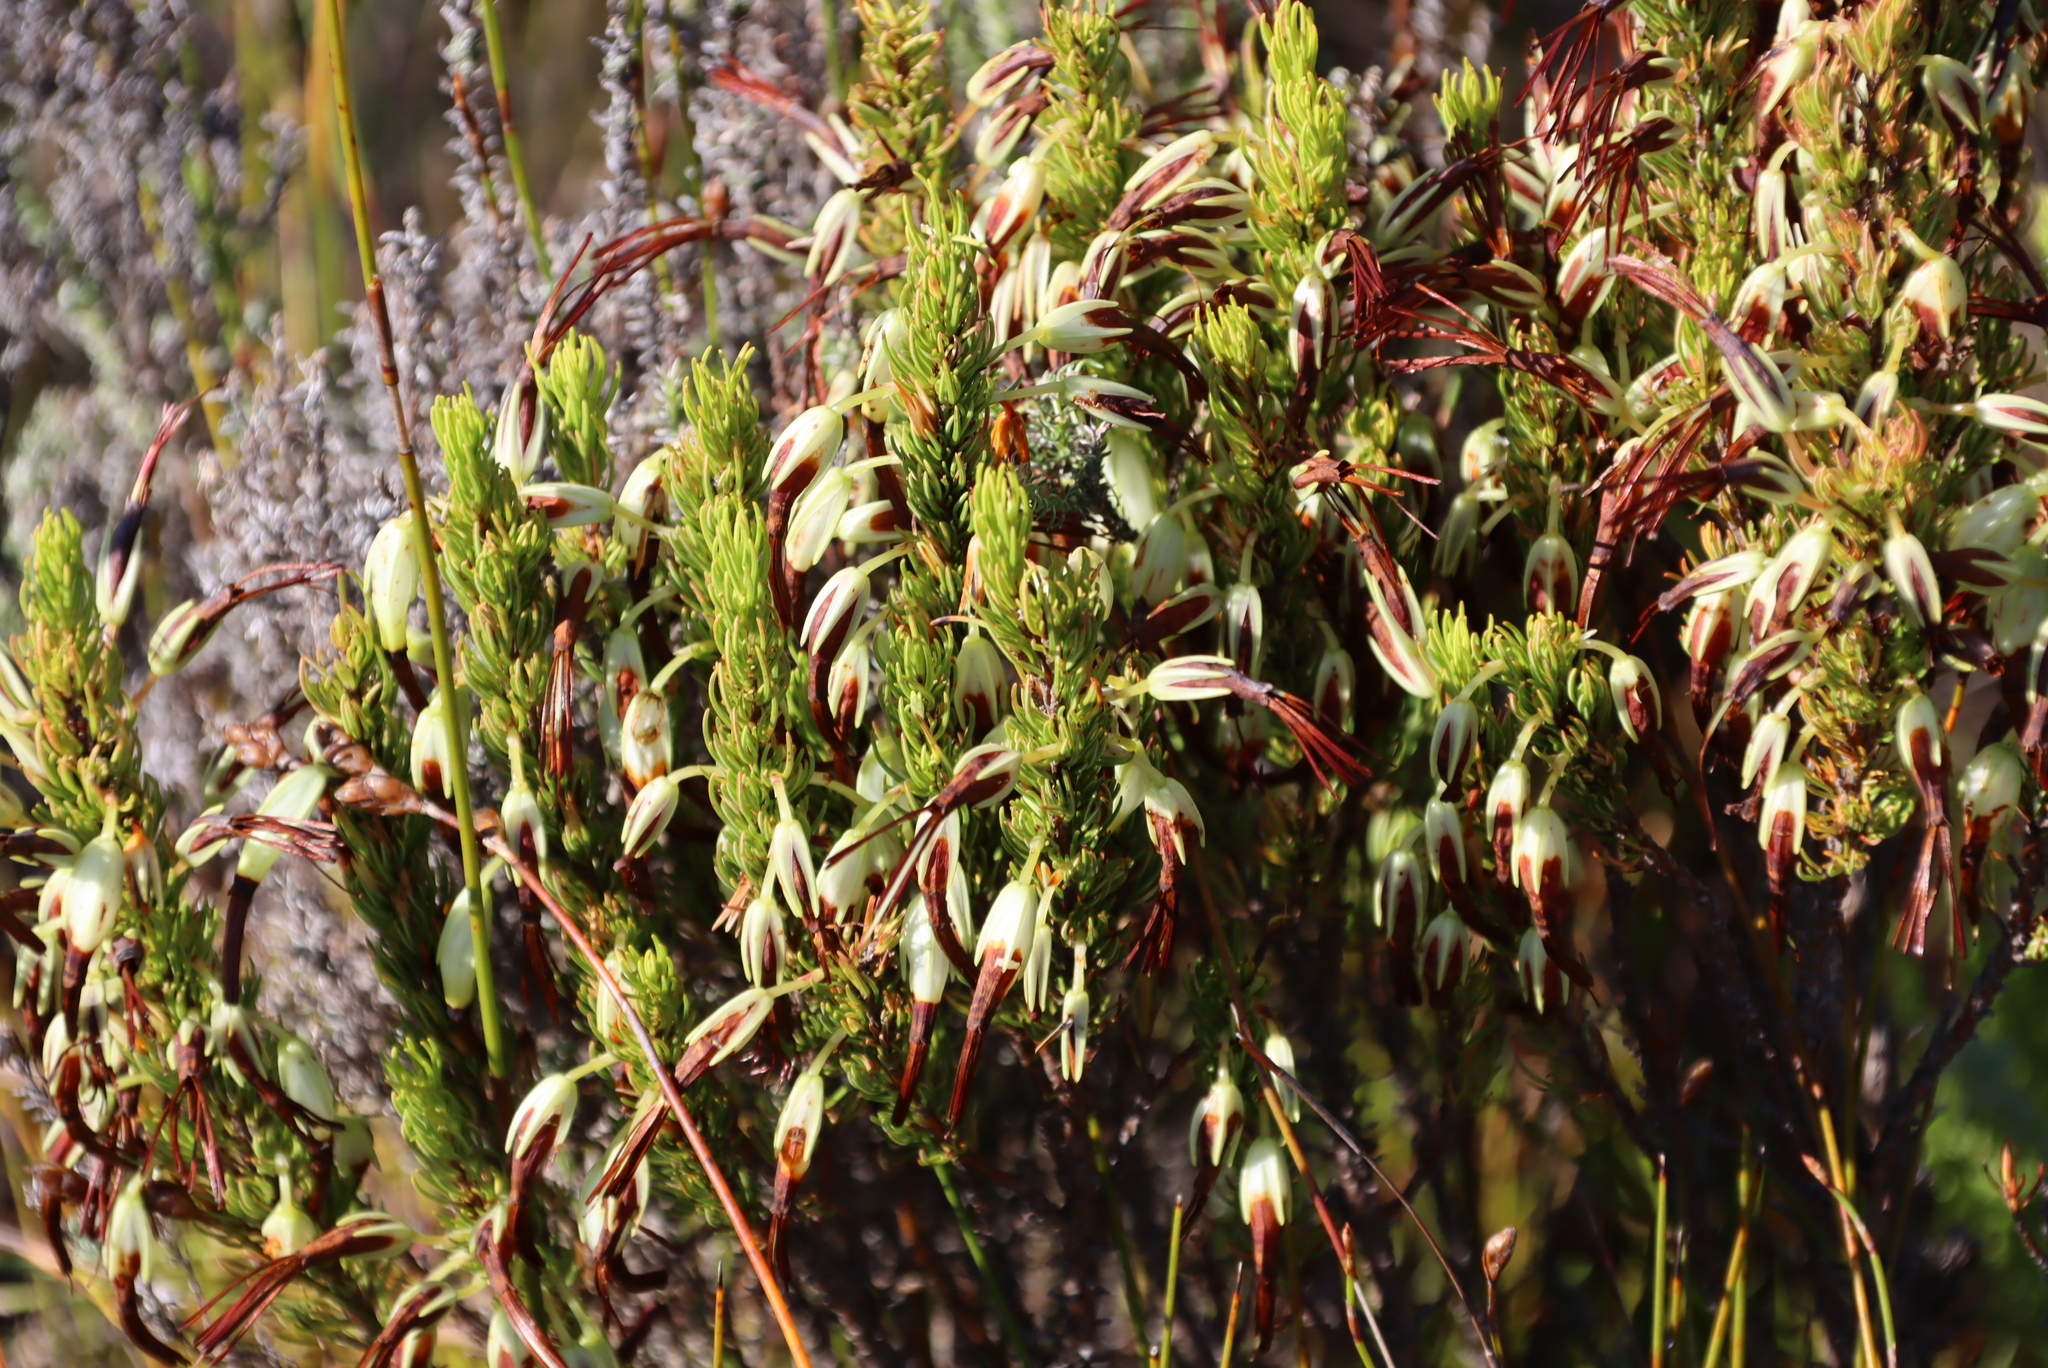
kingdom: Plantae
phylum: Tracheophyta
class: Magnoliopsida
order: Ericales
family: Ericaceae
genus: Erica
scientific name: Erica plukenetii
